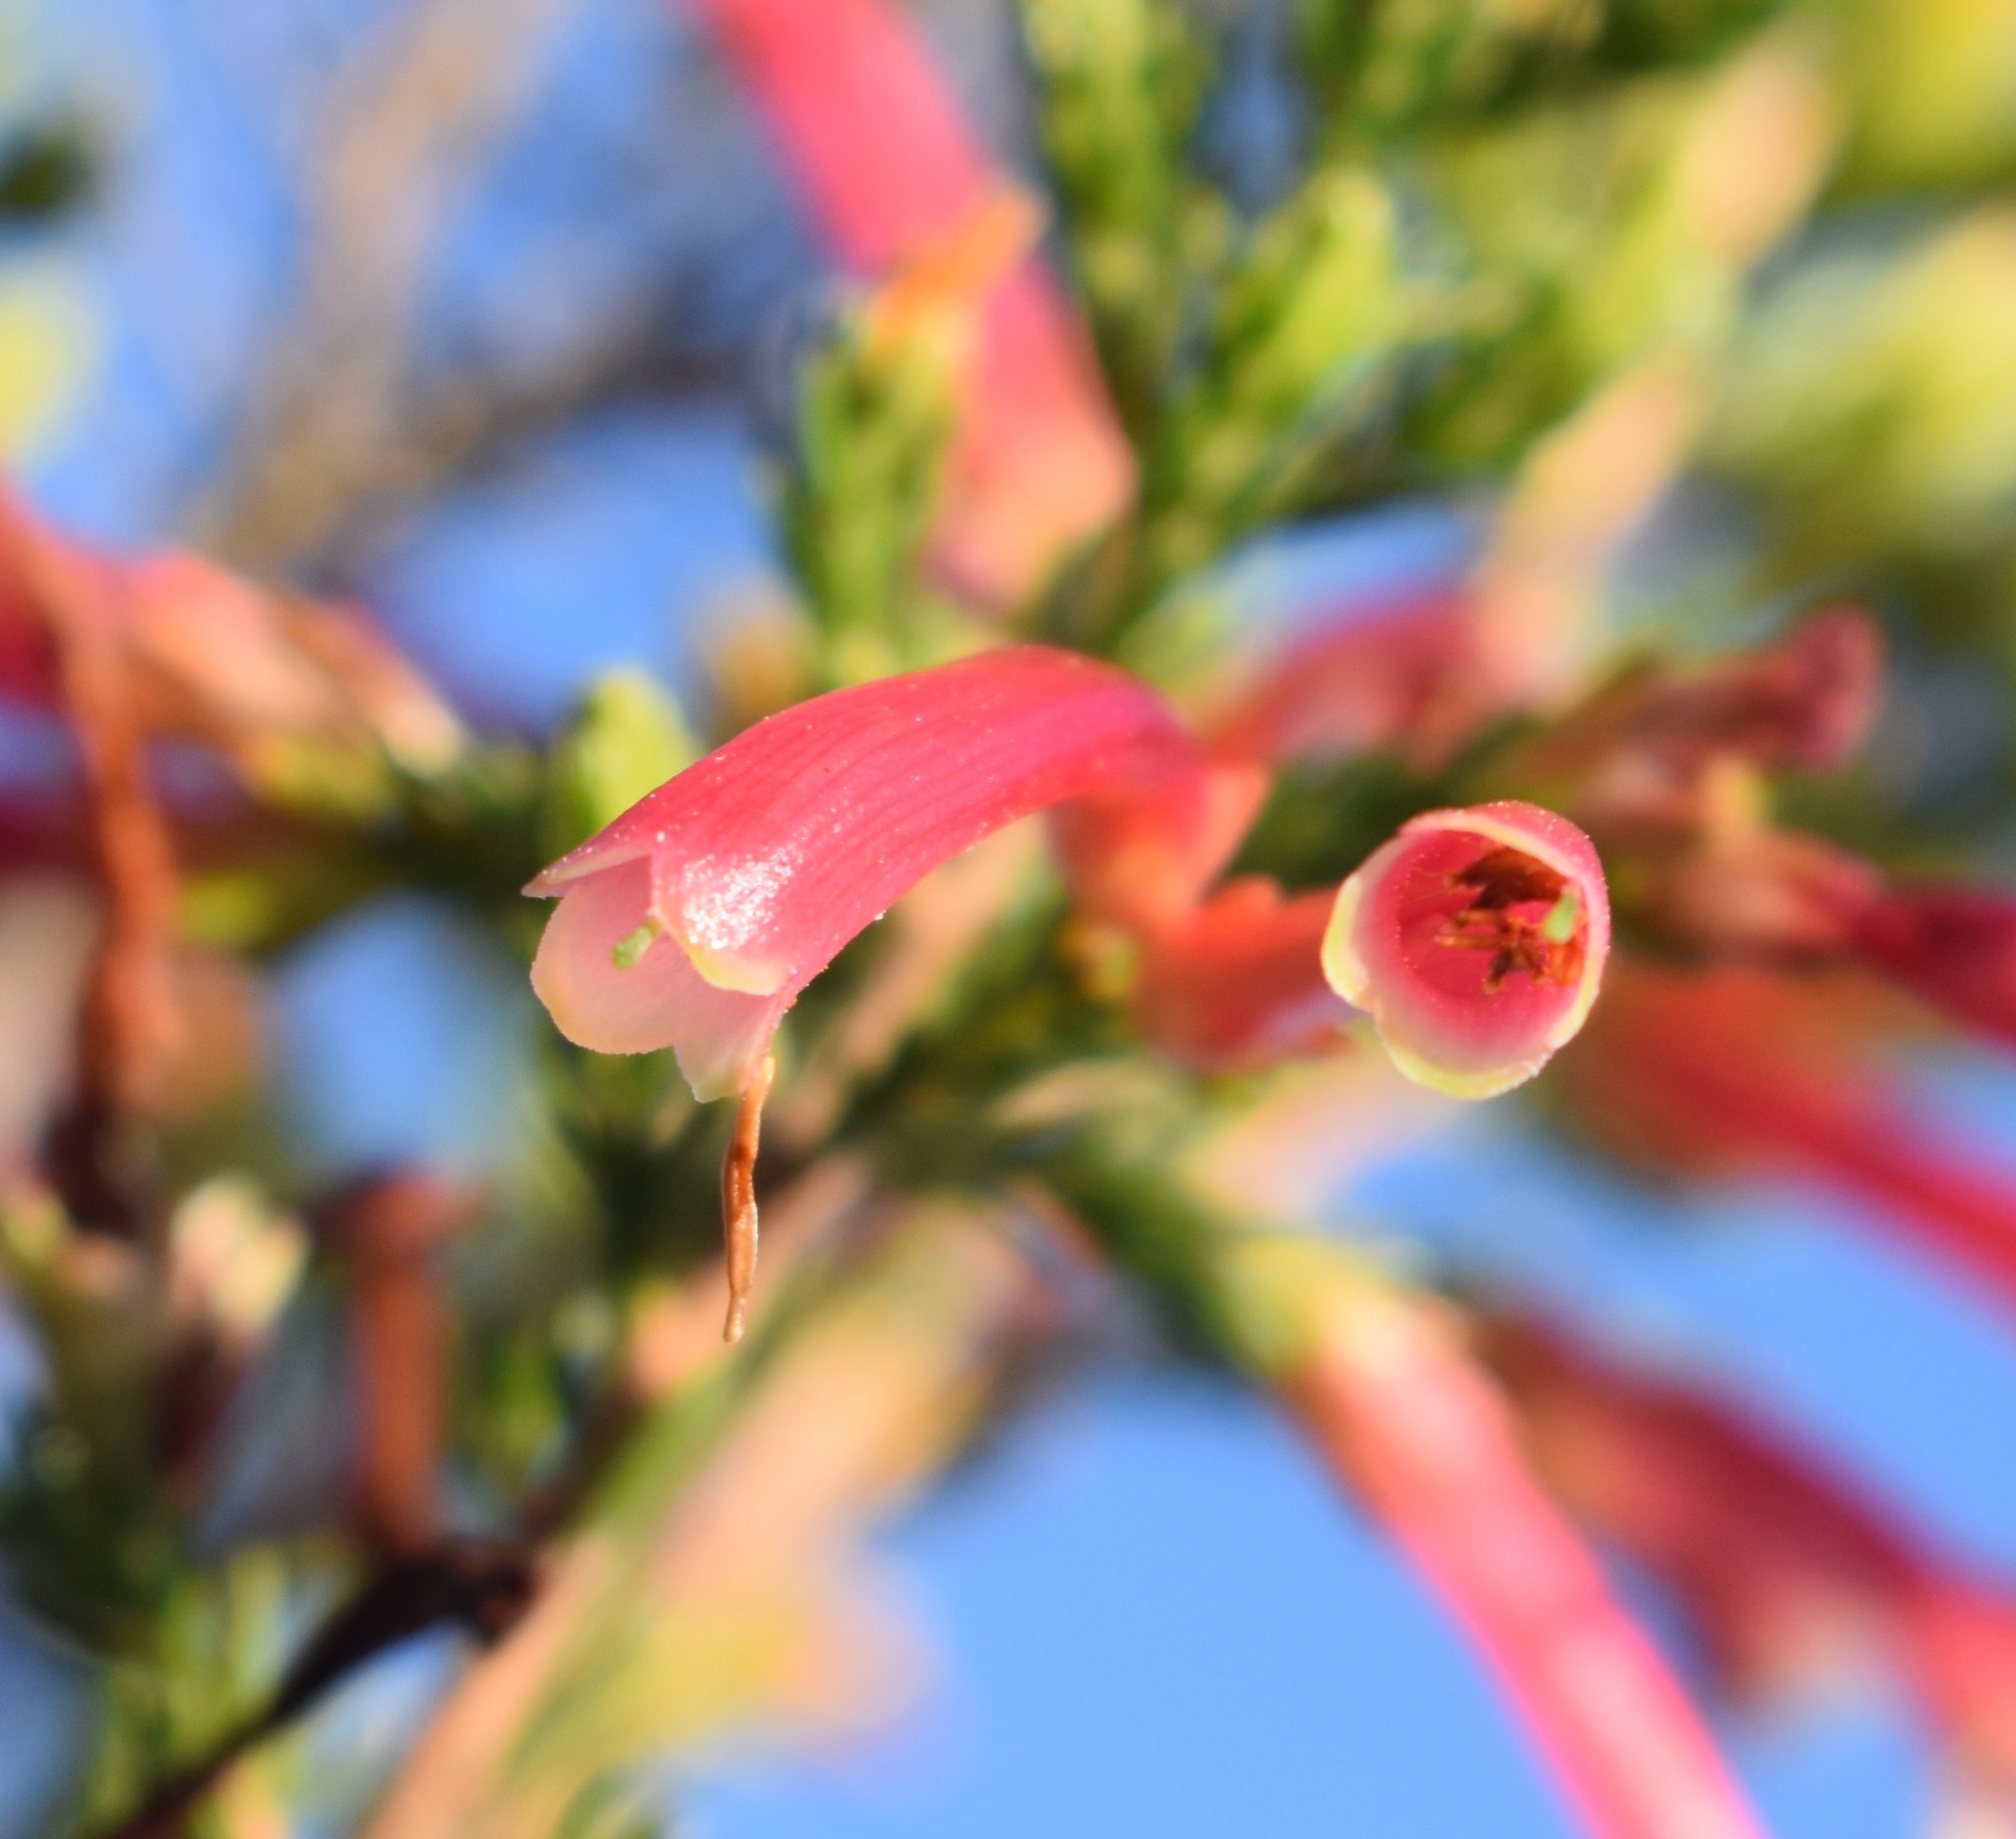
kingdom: Plantae
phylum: Tracheophyta
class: Magnoliopsida
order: Ericales
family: Ericaceae
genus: Erica
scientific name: Erica discolor
